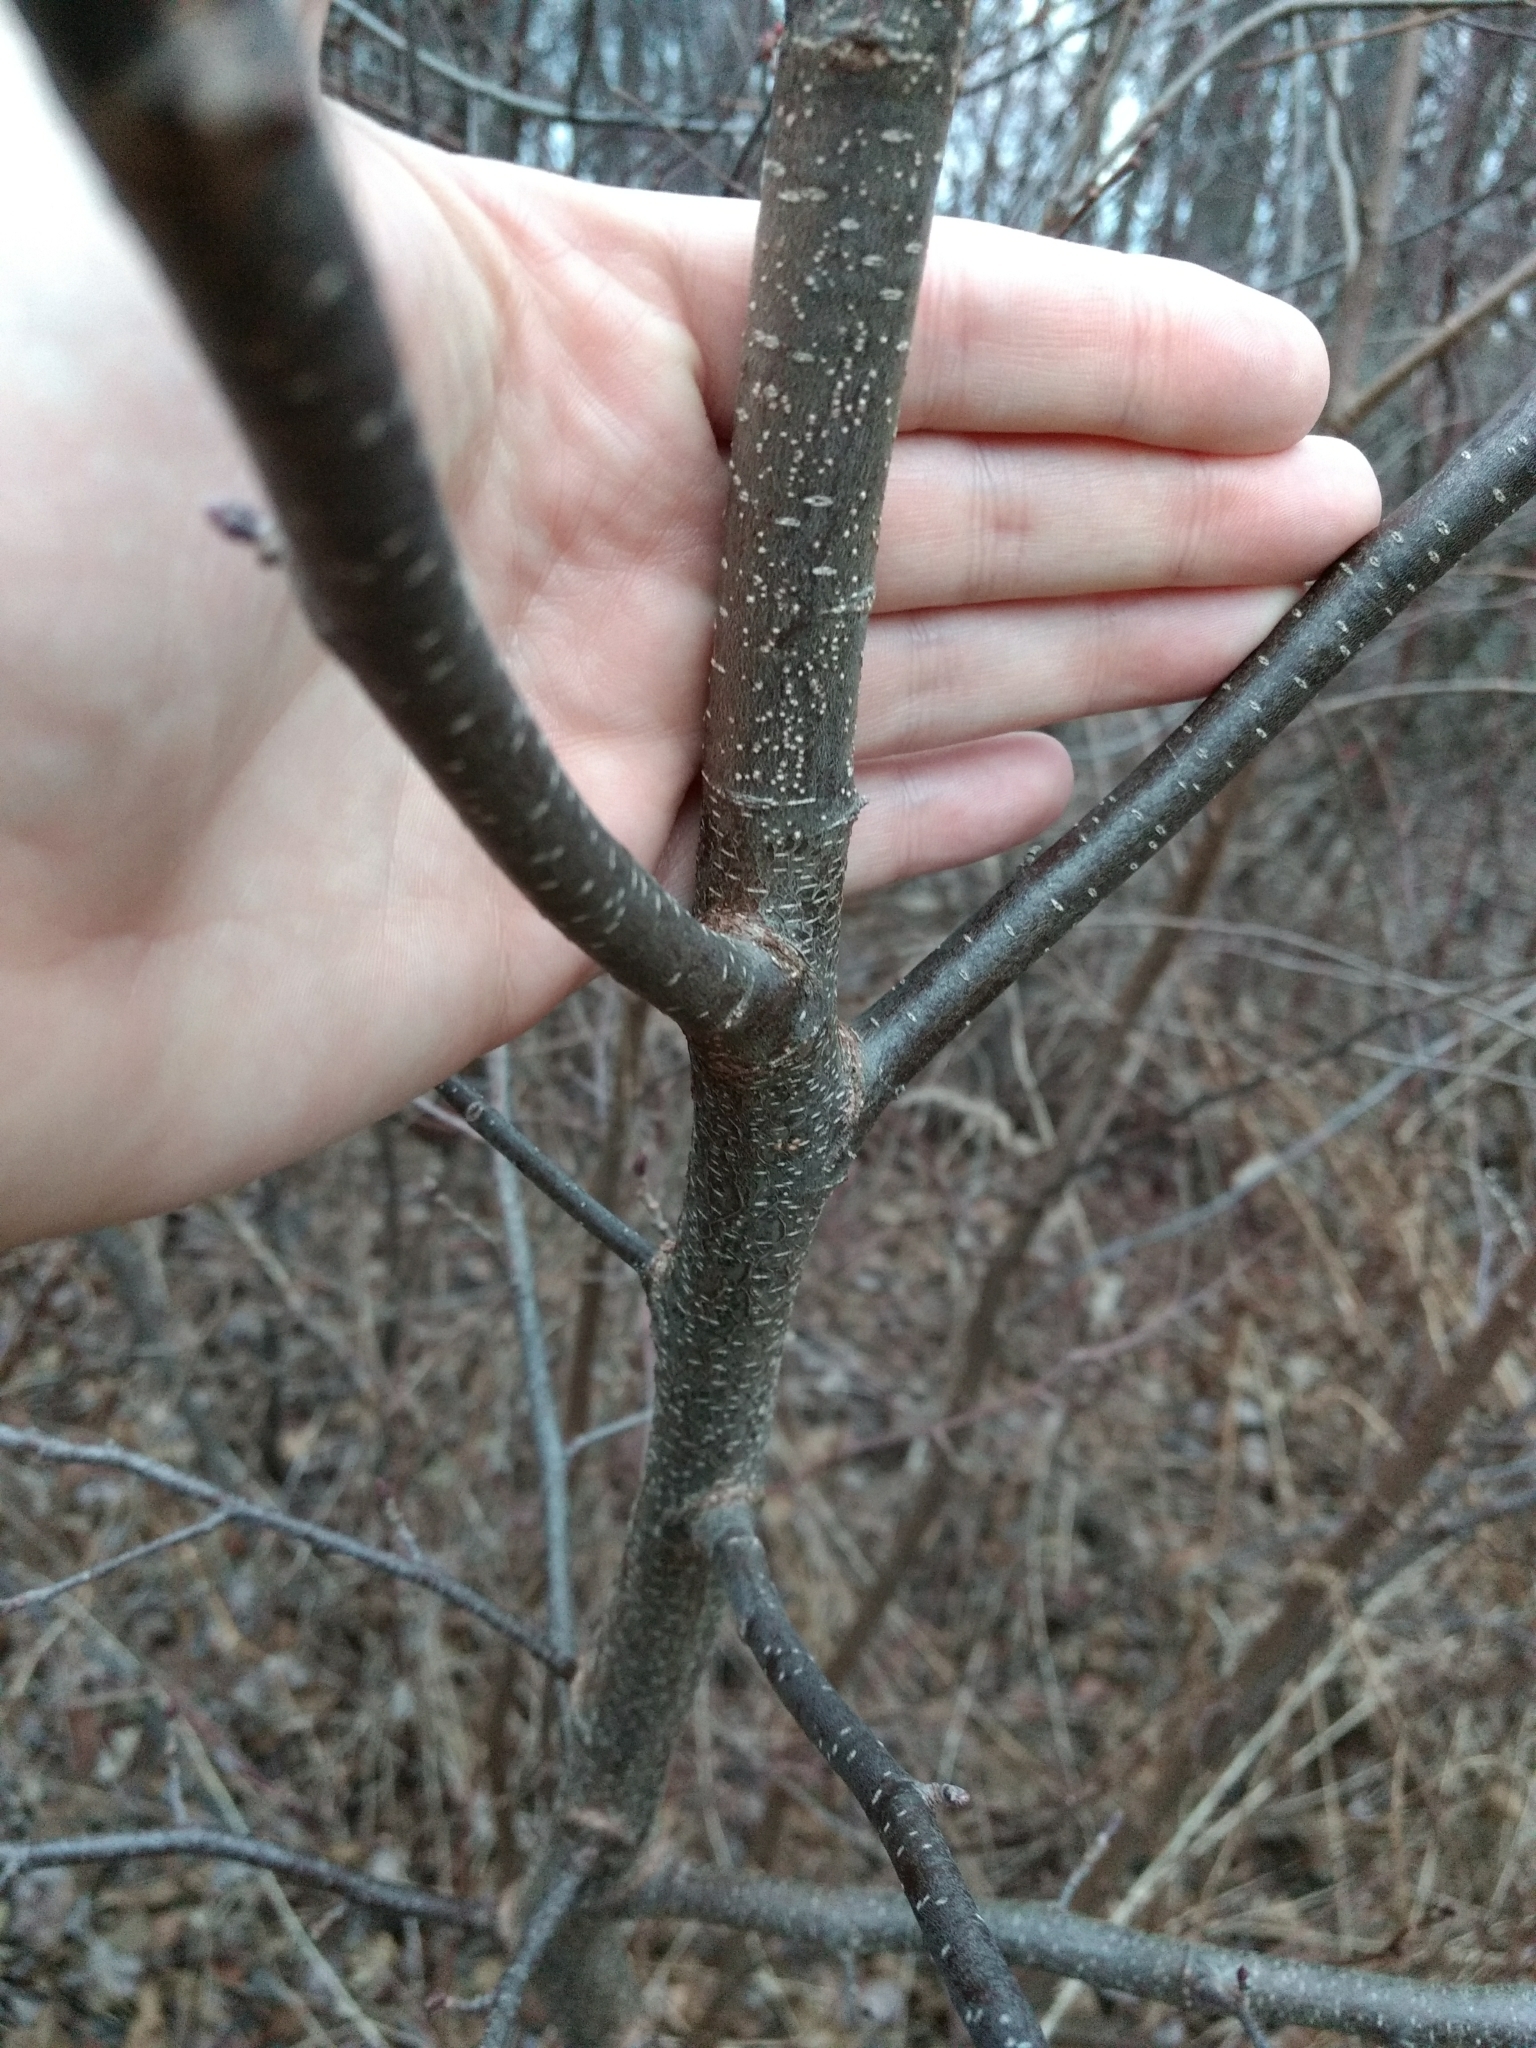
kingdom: Plantae
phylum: Tracheophyta
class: Magnoliopsida
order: Fagales
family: Betulaceae
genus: Alnus
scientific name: Alnus incana
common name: Grey alder
